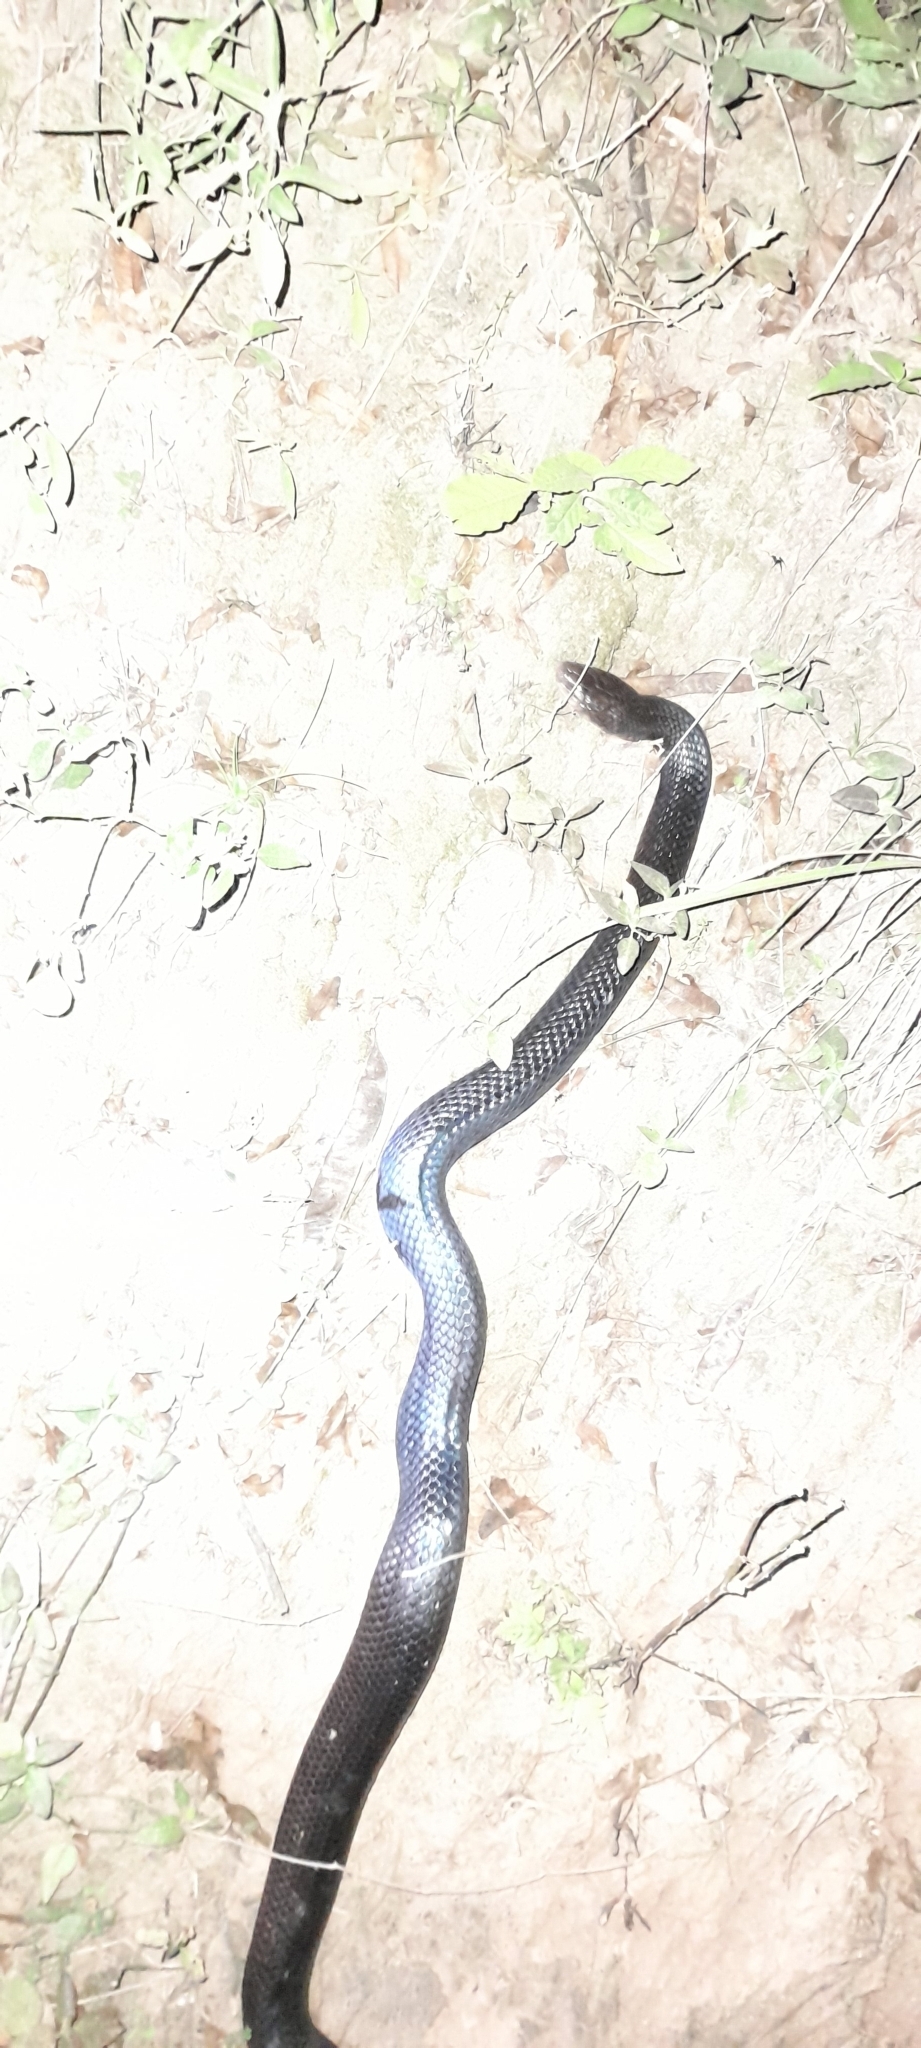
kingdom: Animalia
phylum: Chordata
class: Squamata
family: Colubridae
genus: Boiruna
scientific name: Boiruna maculata
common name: Mussurana
